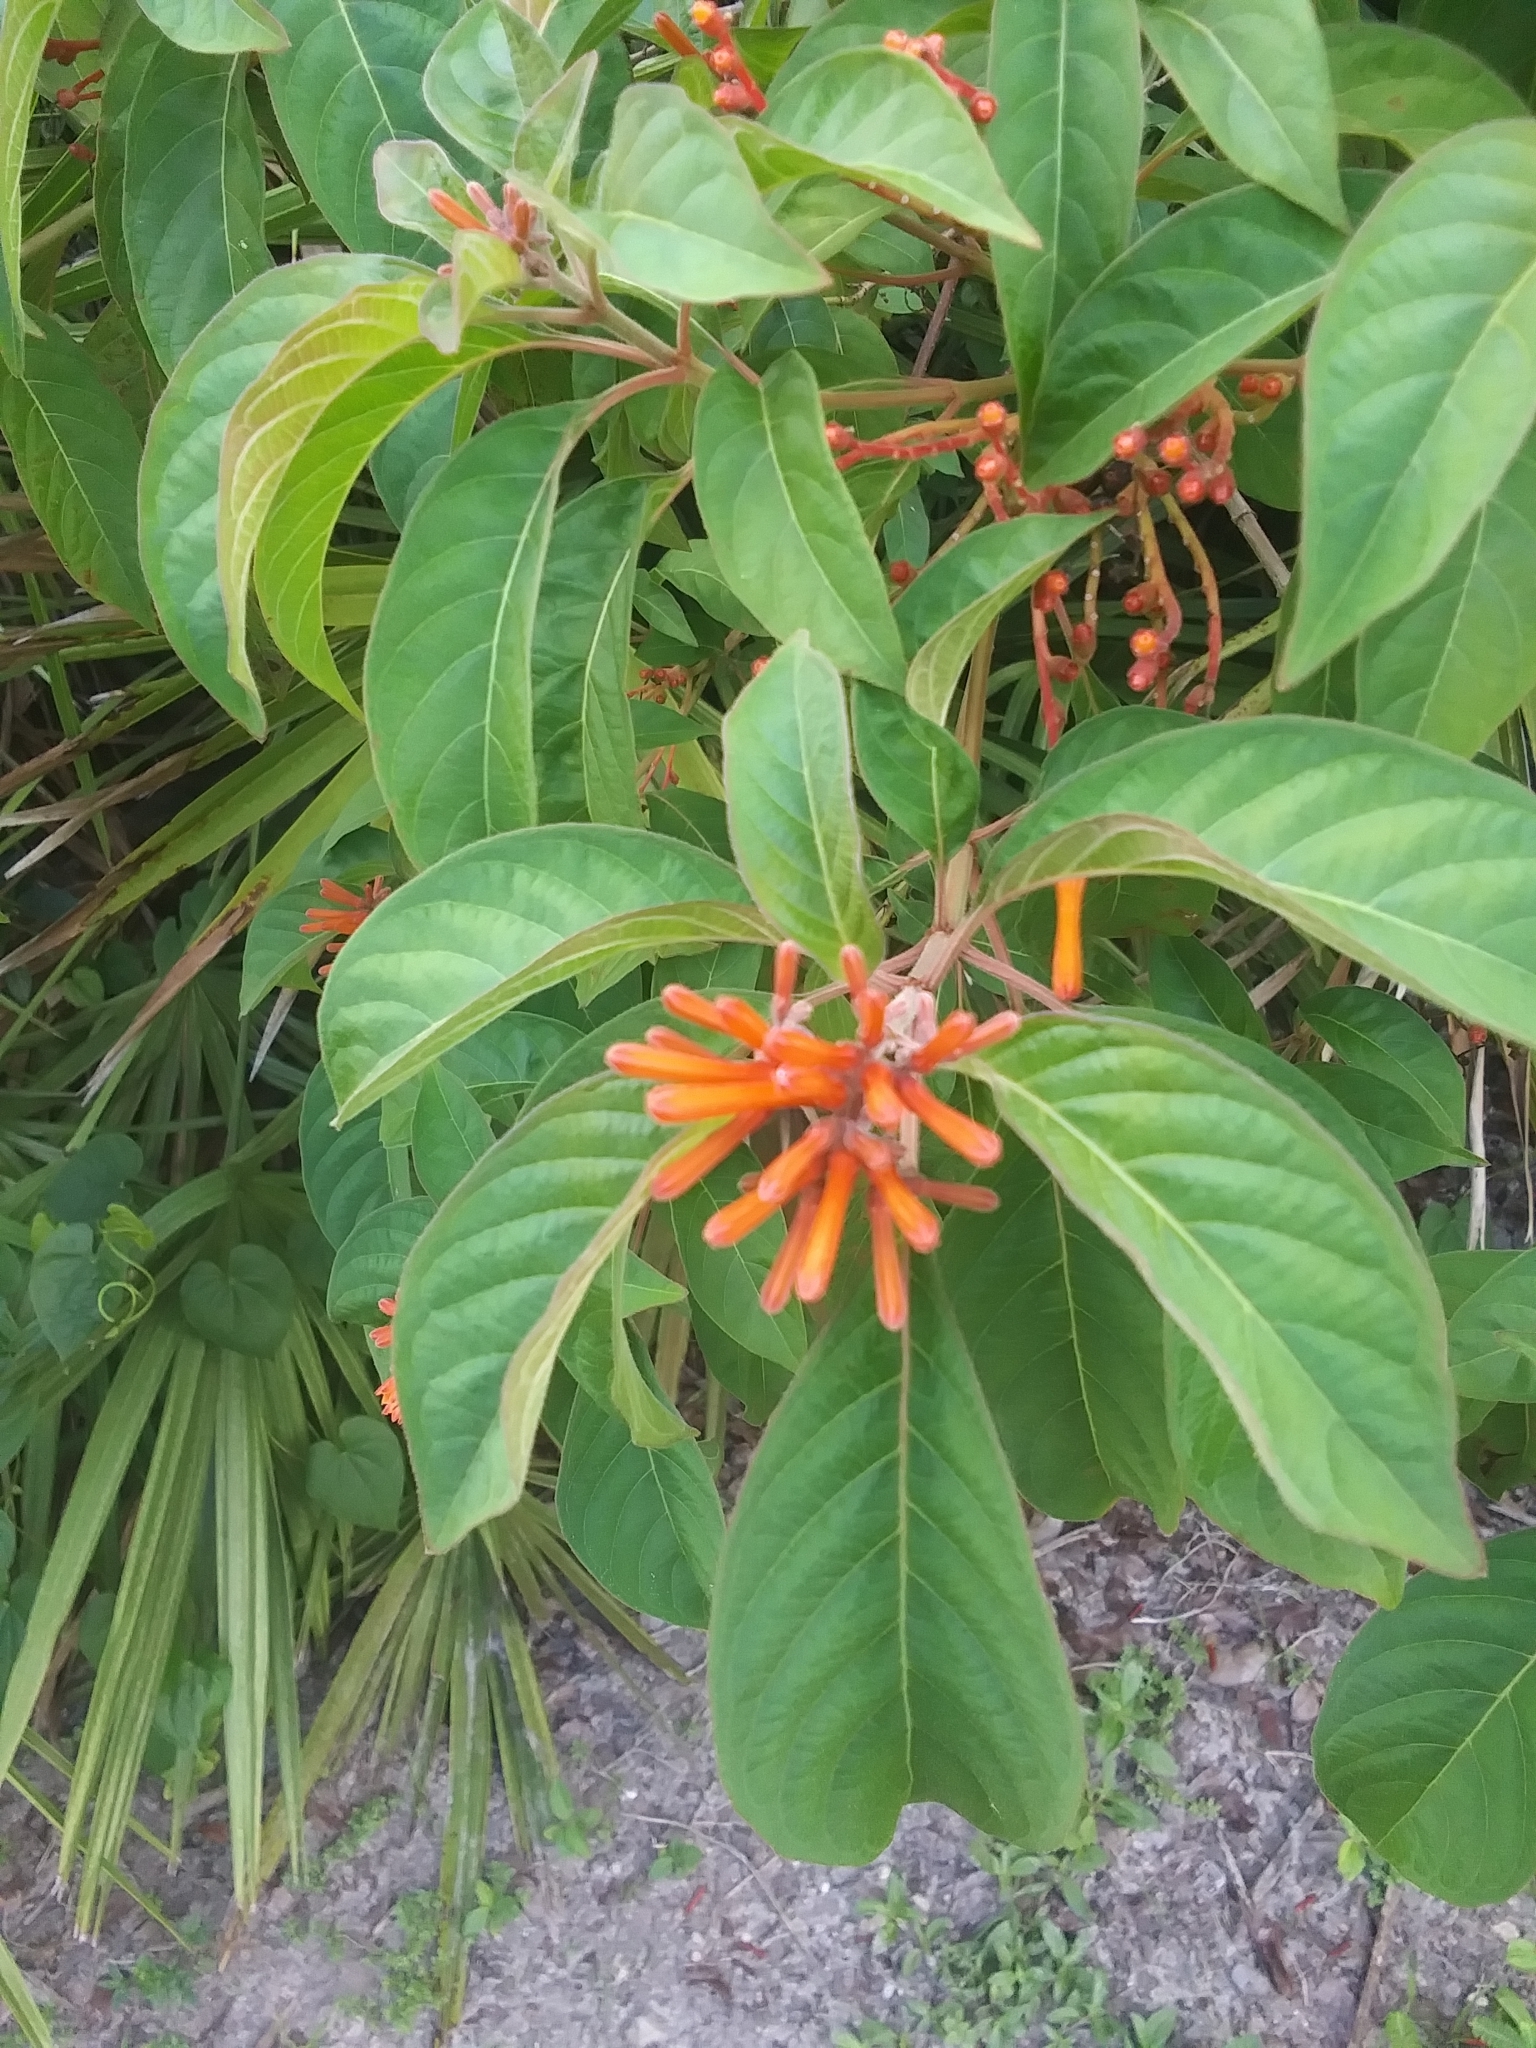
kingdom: Plantae
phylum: Tracheophyta
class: Magnoliopsida
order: Gentianales
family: Rubiaceae
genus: Hamelia
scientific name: Hamelia patens
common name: Redhead
